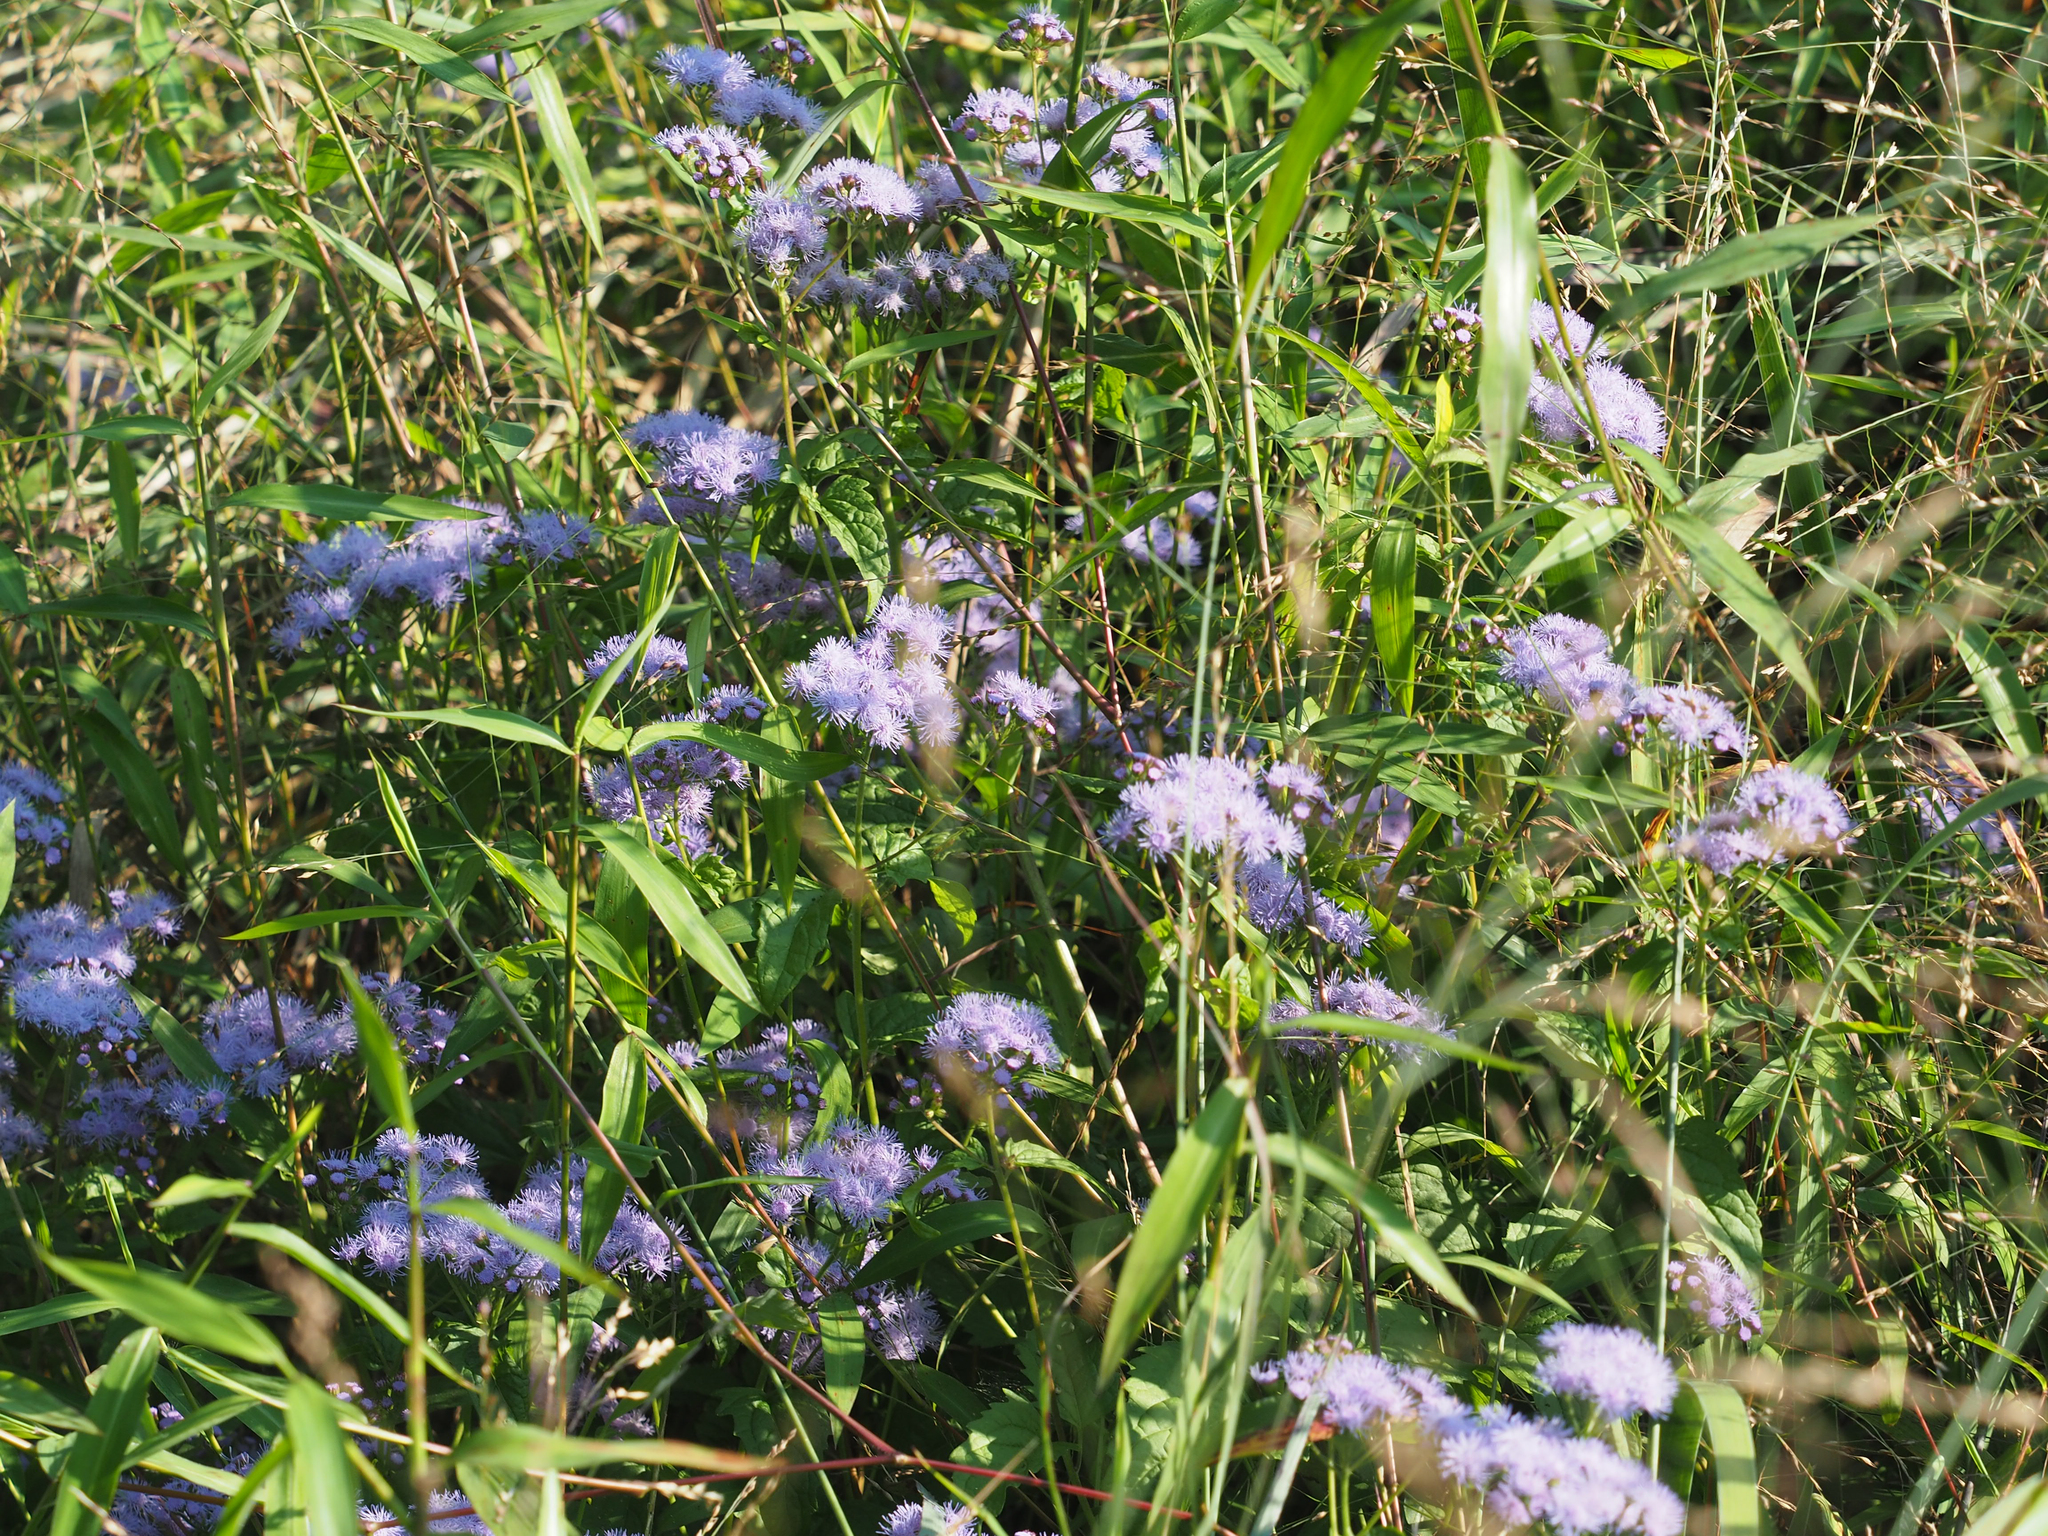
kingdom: Plantae
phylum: Tracheophyta
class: Magnoliopsida
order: Asterales
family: Asteraceae
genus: Conoclinium
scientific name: Conoclinium coelestinum
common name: Blue mistflower
